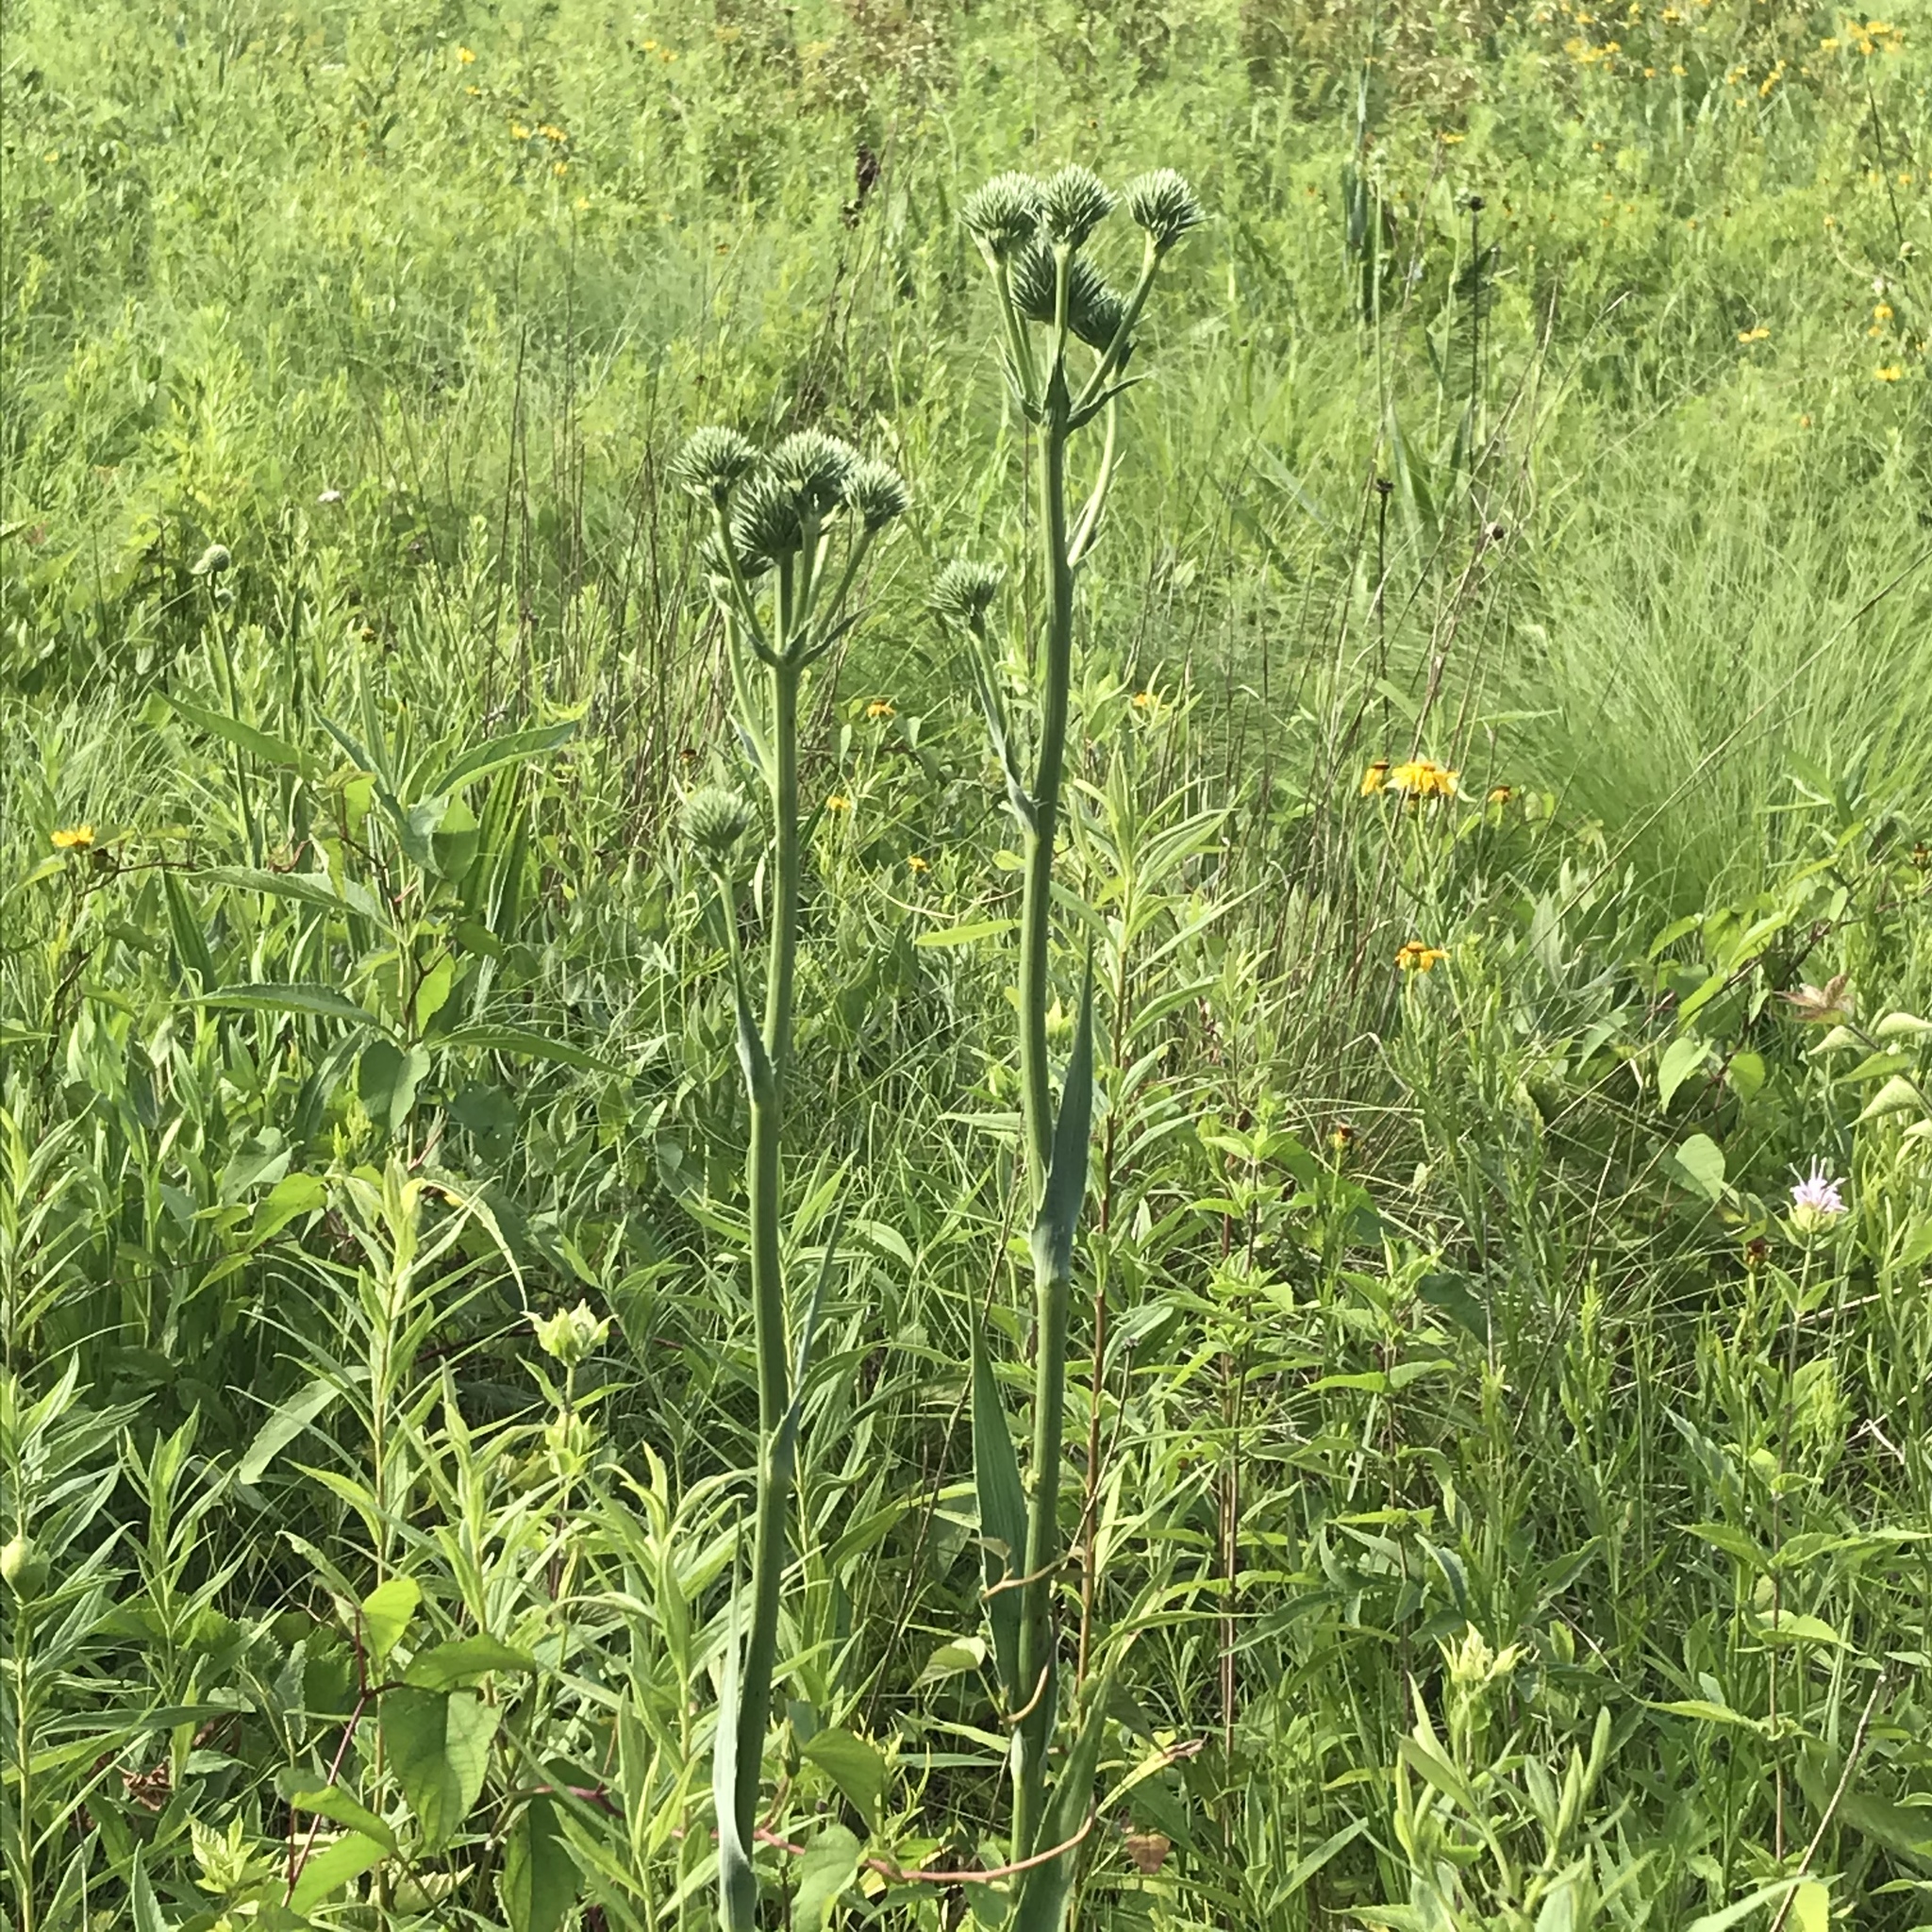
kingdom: Plantae
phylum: Tracheophyta
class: Magnoliopsida
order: Apiales
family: Apiaceae
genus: Eryngium
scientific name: Eryngium yuccifolium
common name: Button eryngo
